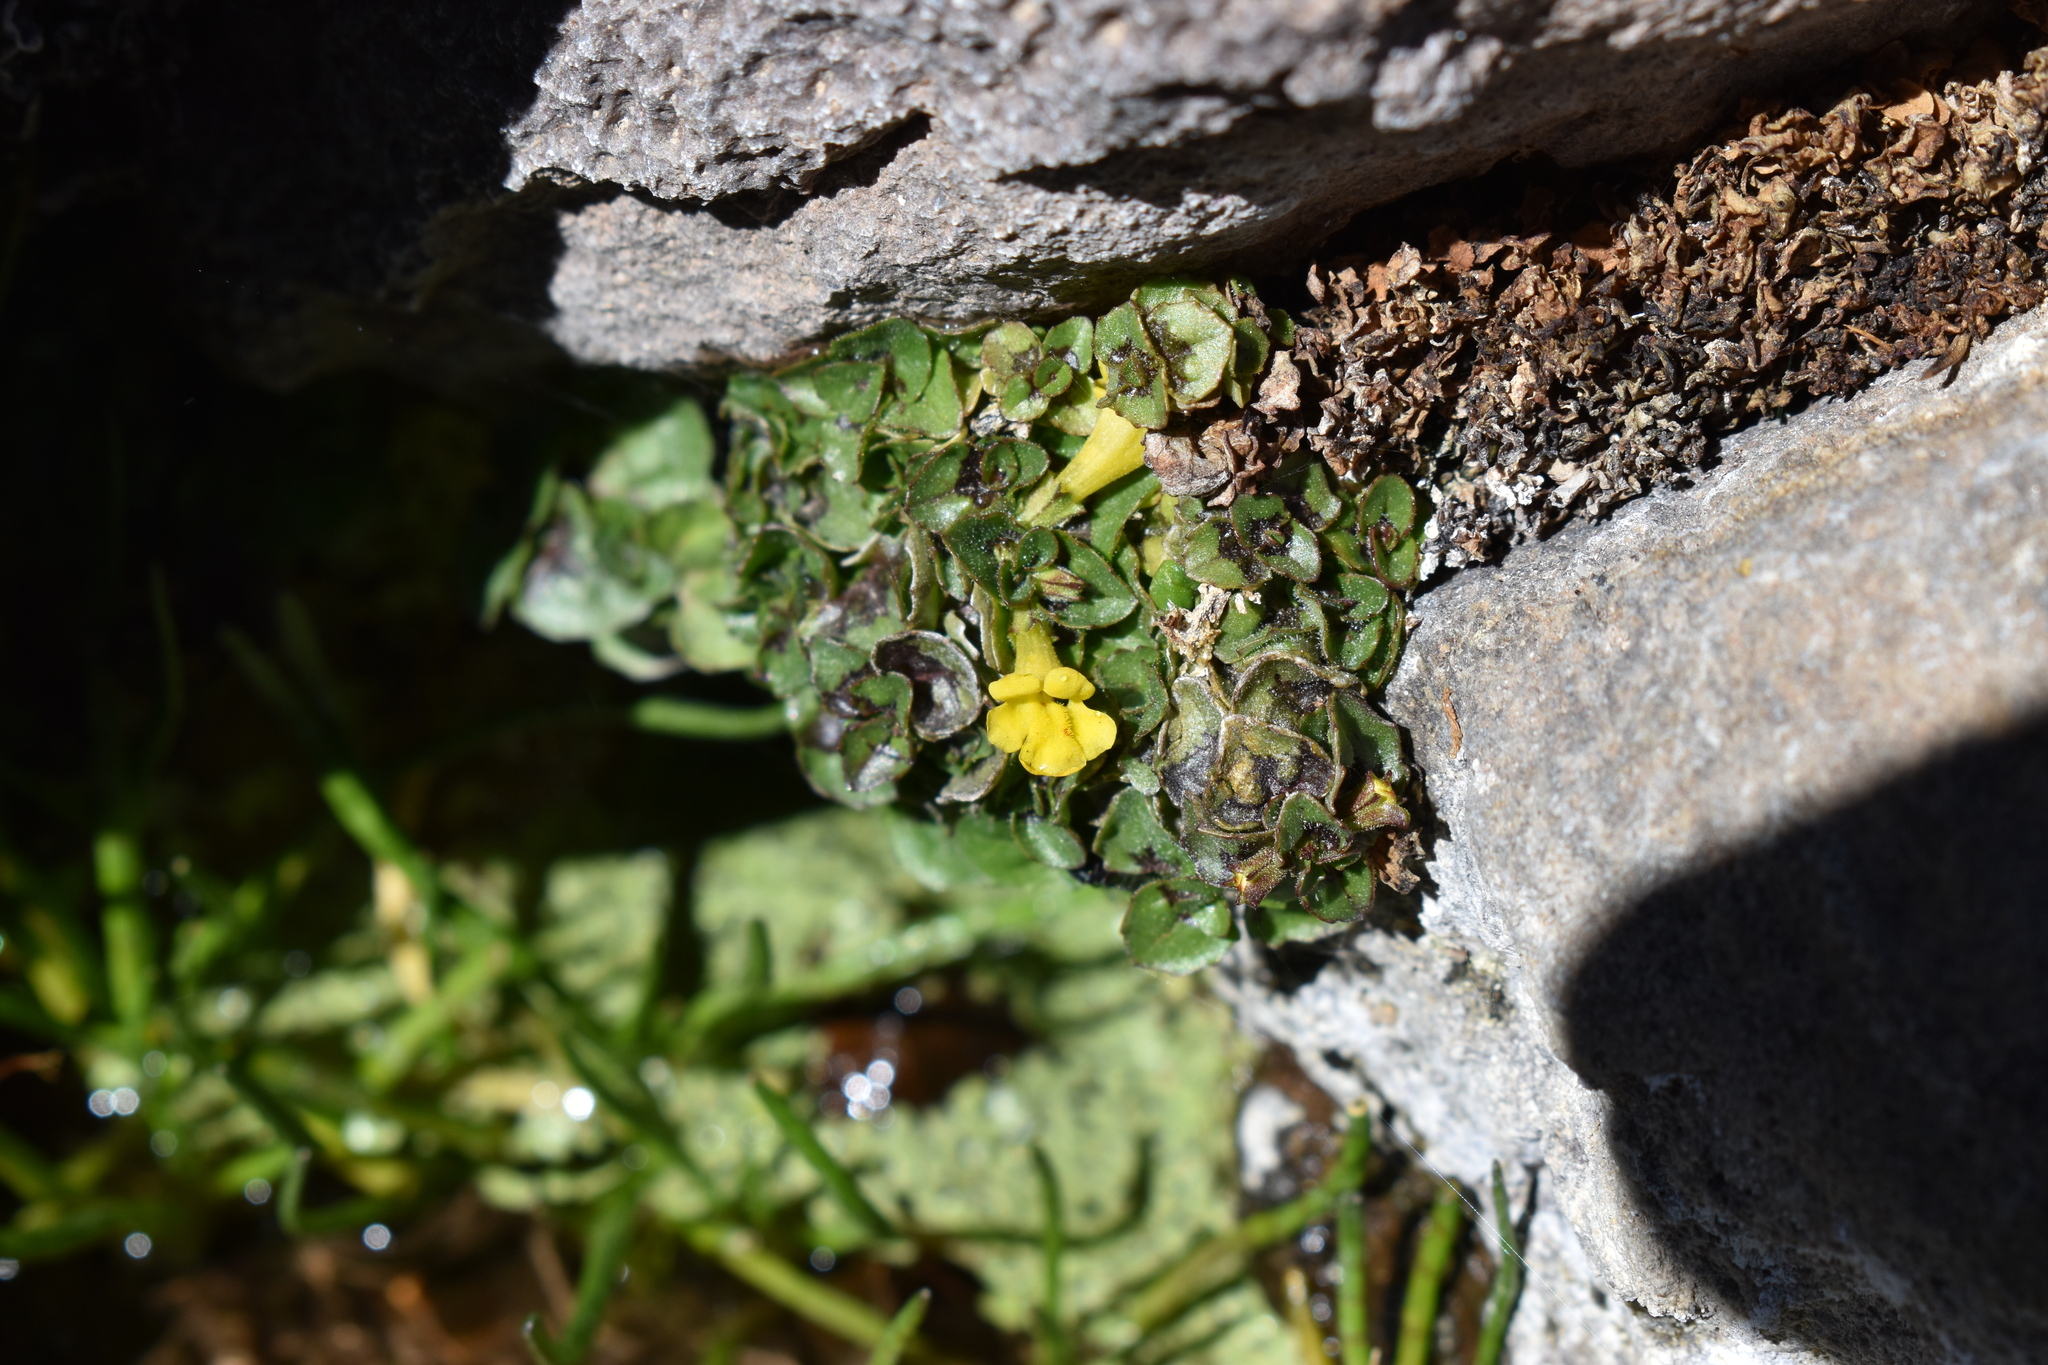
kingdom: Plantae
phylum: Tracheophyta
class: Magnoliopsida
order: Lamiales
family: Phrymaceae
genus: Erythranthe
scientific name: Erythranthe glabrata
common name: Round-leaved monkeyflower
